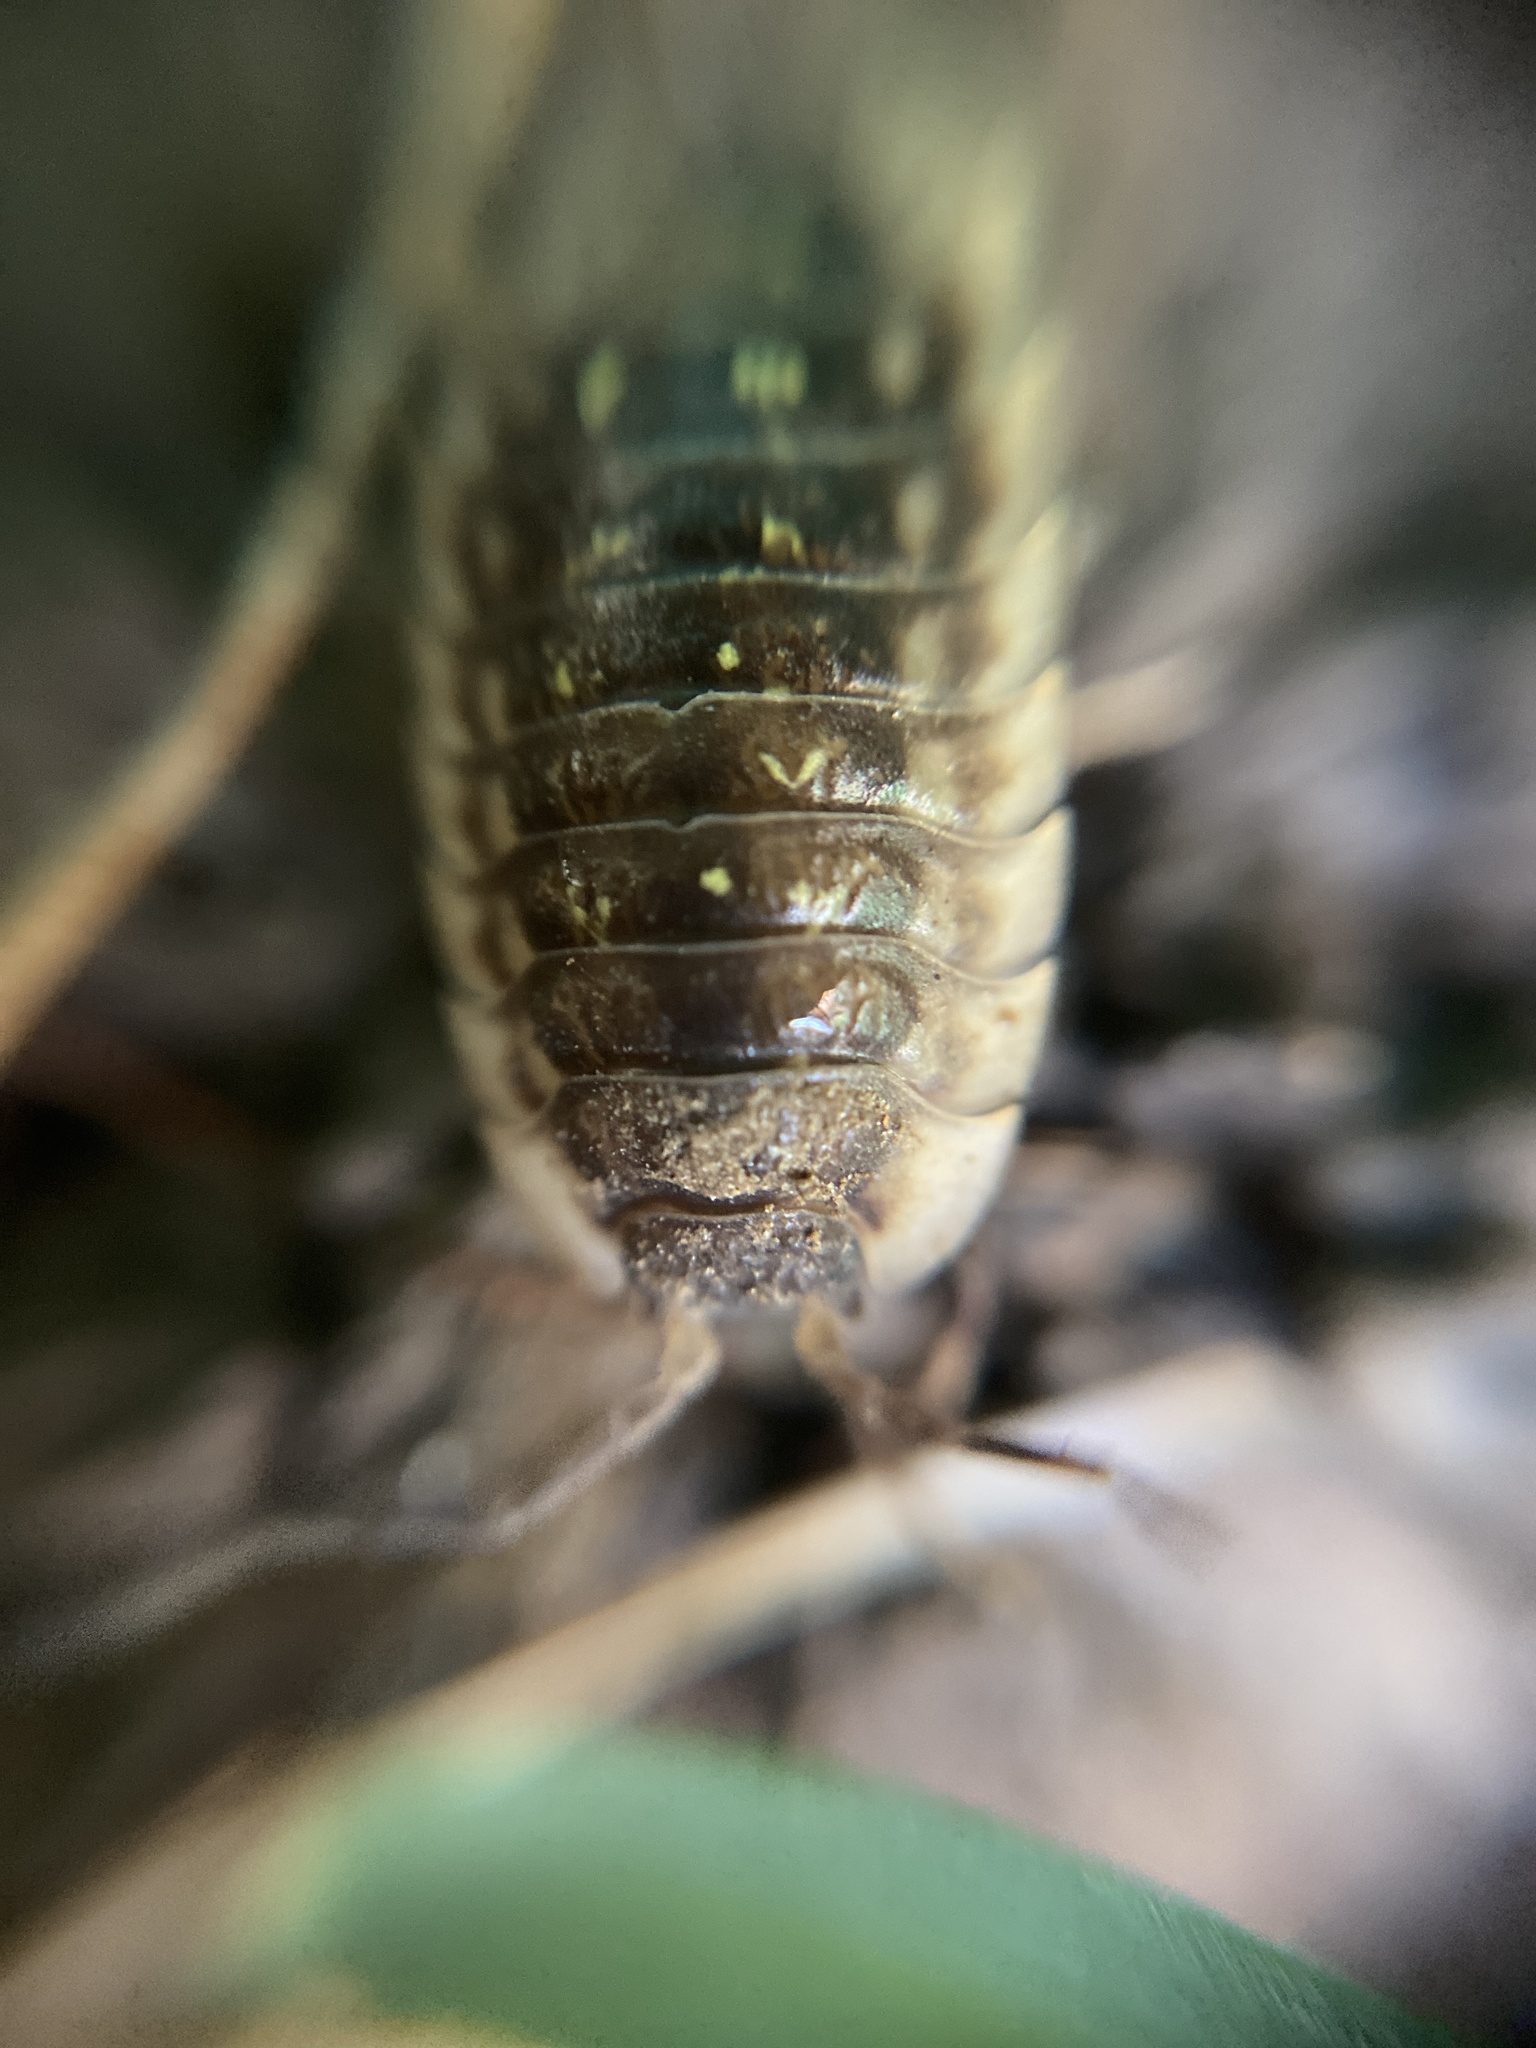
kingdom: Animalia
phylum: Arthropoda
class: Malacostraca
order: Isopoda
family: Oniscidae
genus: Oniscus
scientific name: Oniscus asellus
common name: Common shiny woodlouse
